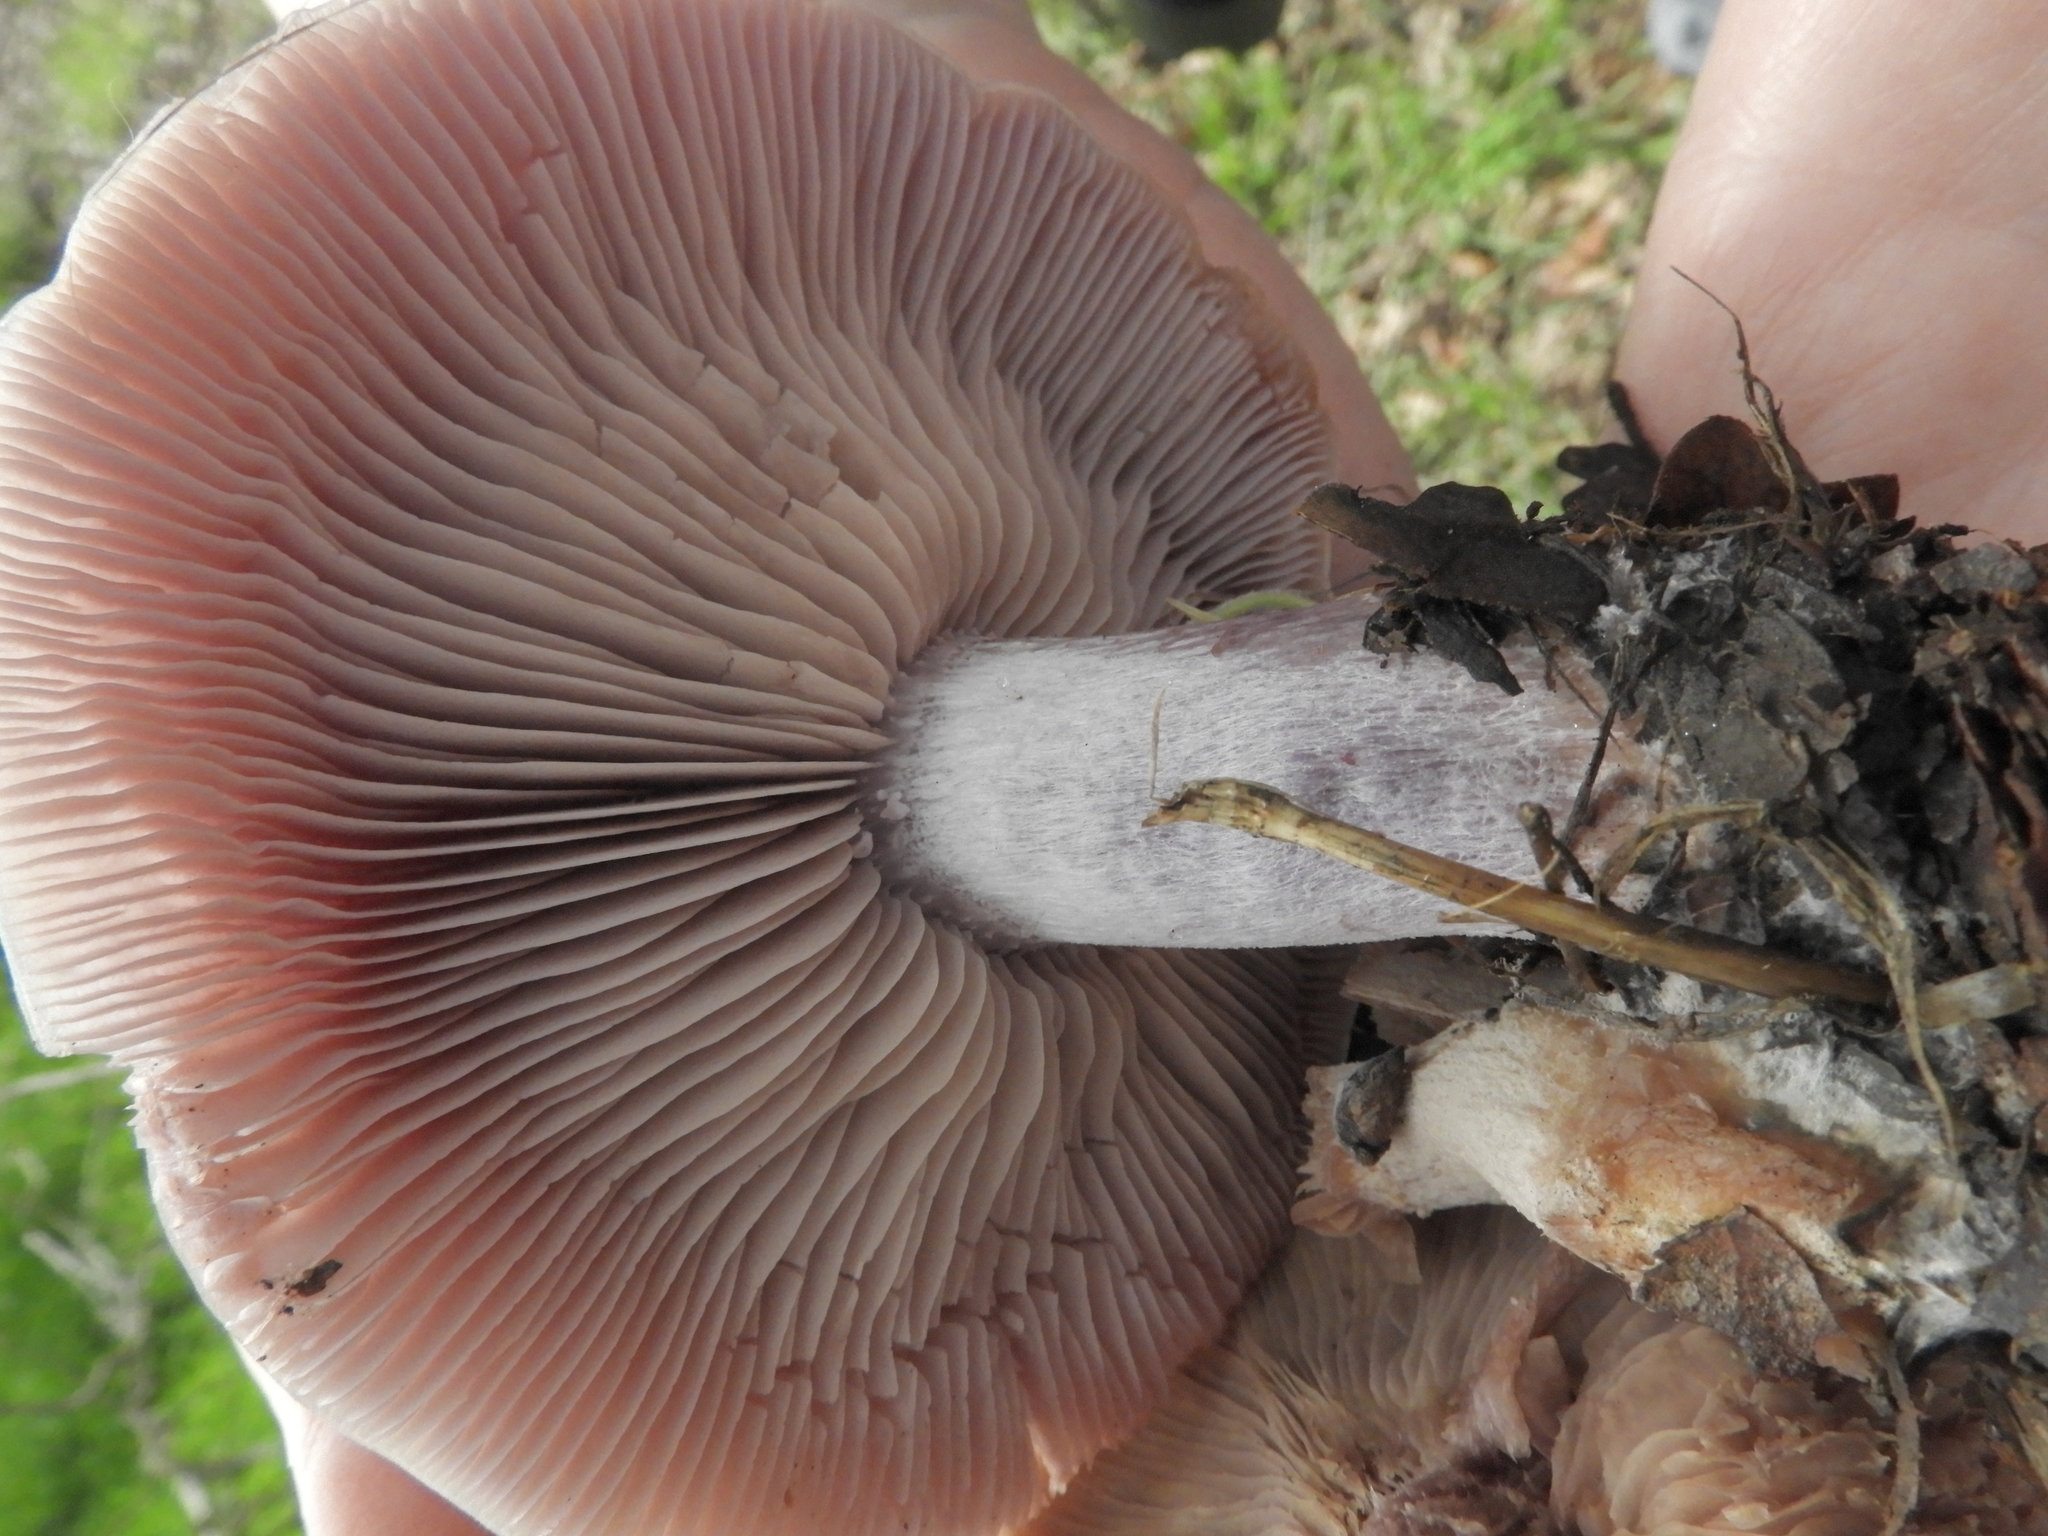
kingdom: Fungi
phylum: Basidiomycota
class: Agaricomycetes
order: Agaricales
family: Tricholomataceae
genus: Collybia
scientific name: Collybia
